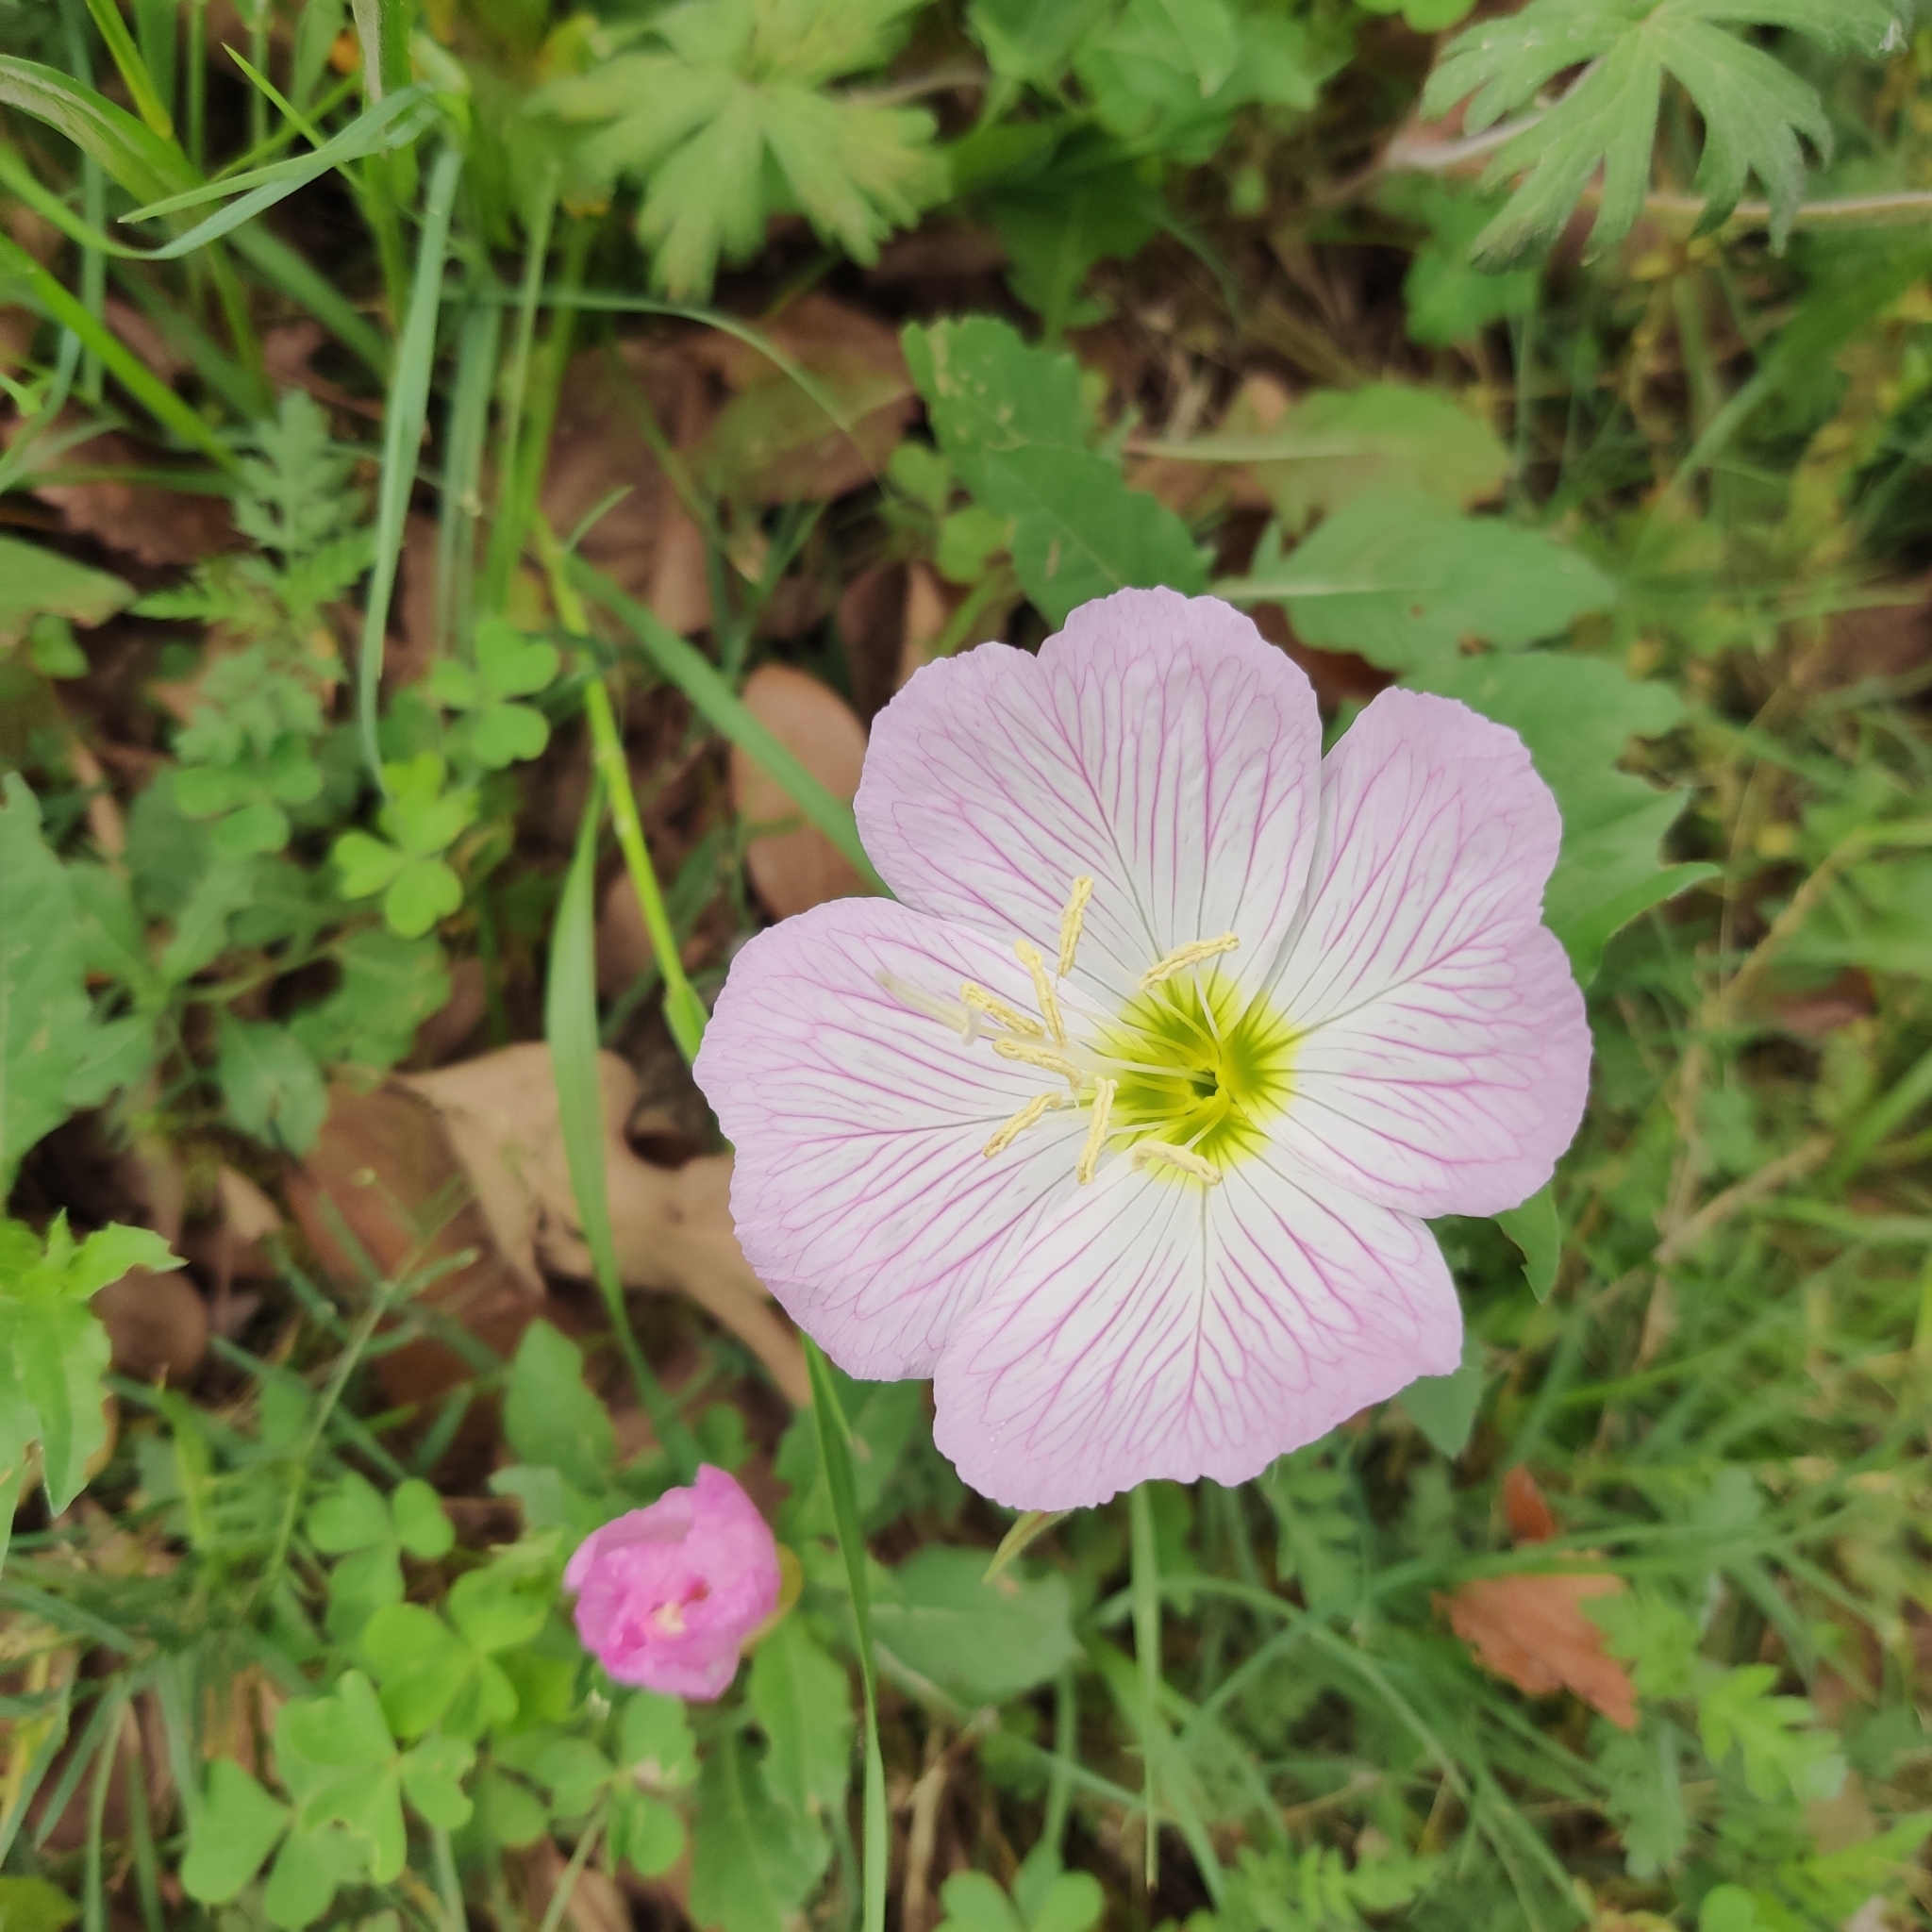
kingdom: Plantae
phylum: Tracheophyta
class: Magnoliopsida
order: Myrtales
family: Onagraceae
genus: Oenothera
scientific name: Oenothera speciosa
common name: White evening-primrose
